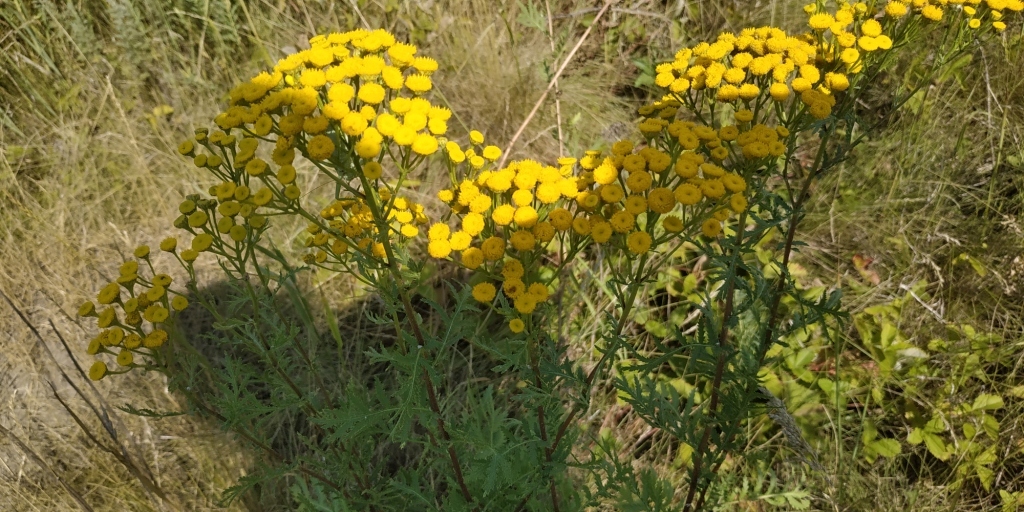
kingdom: Plantae
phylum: Tracheophyta
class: Magnoliopsida
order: Asterales
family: Asteraceae
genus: Tanacetum
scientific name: Tanacetum vulgare
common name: Common tansy
